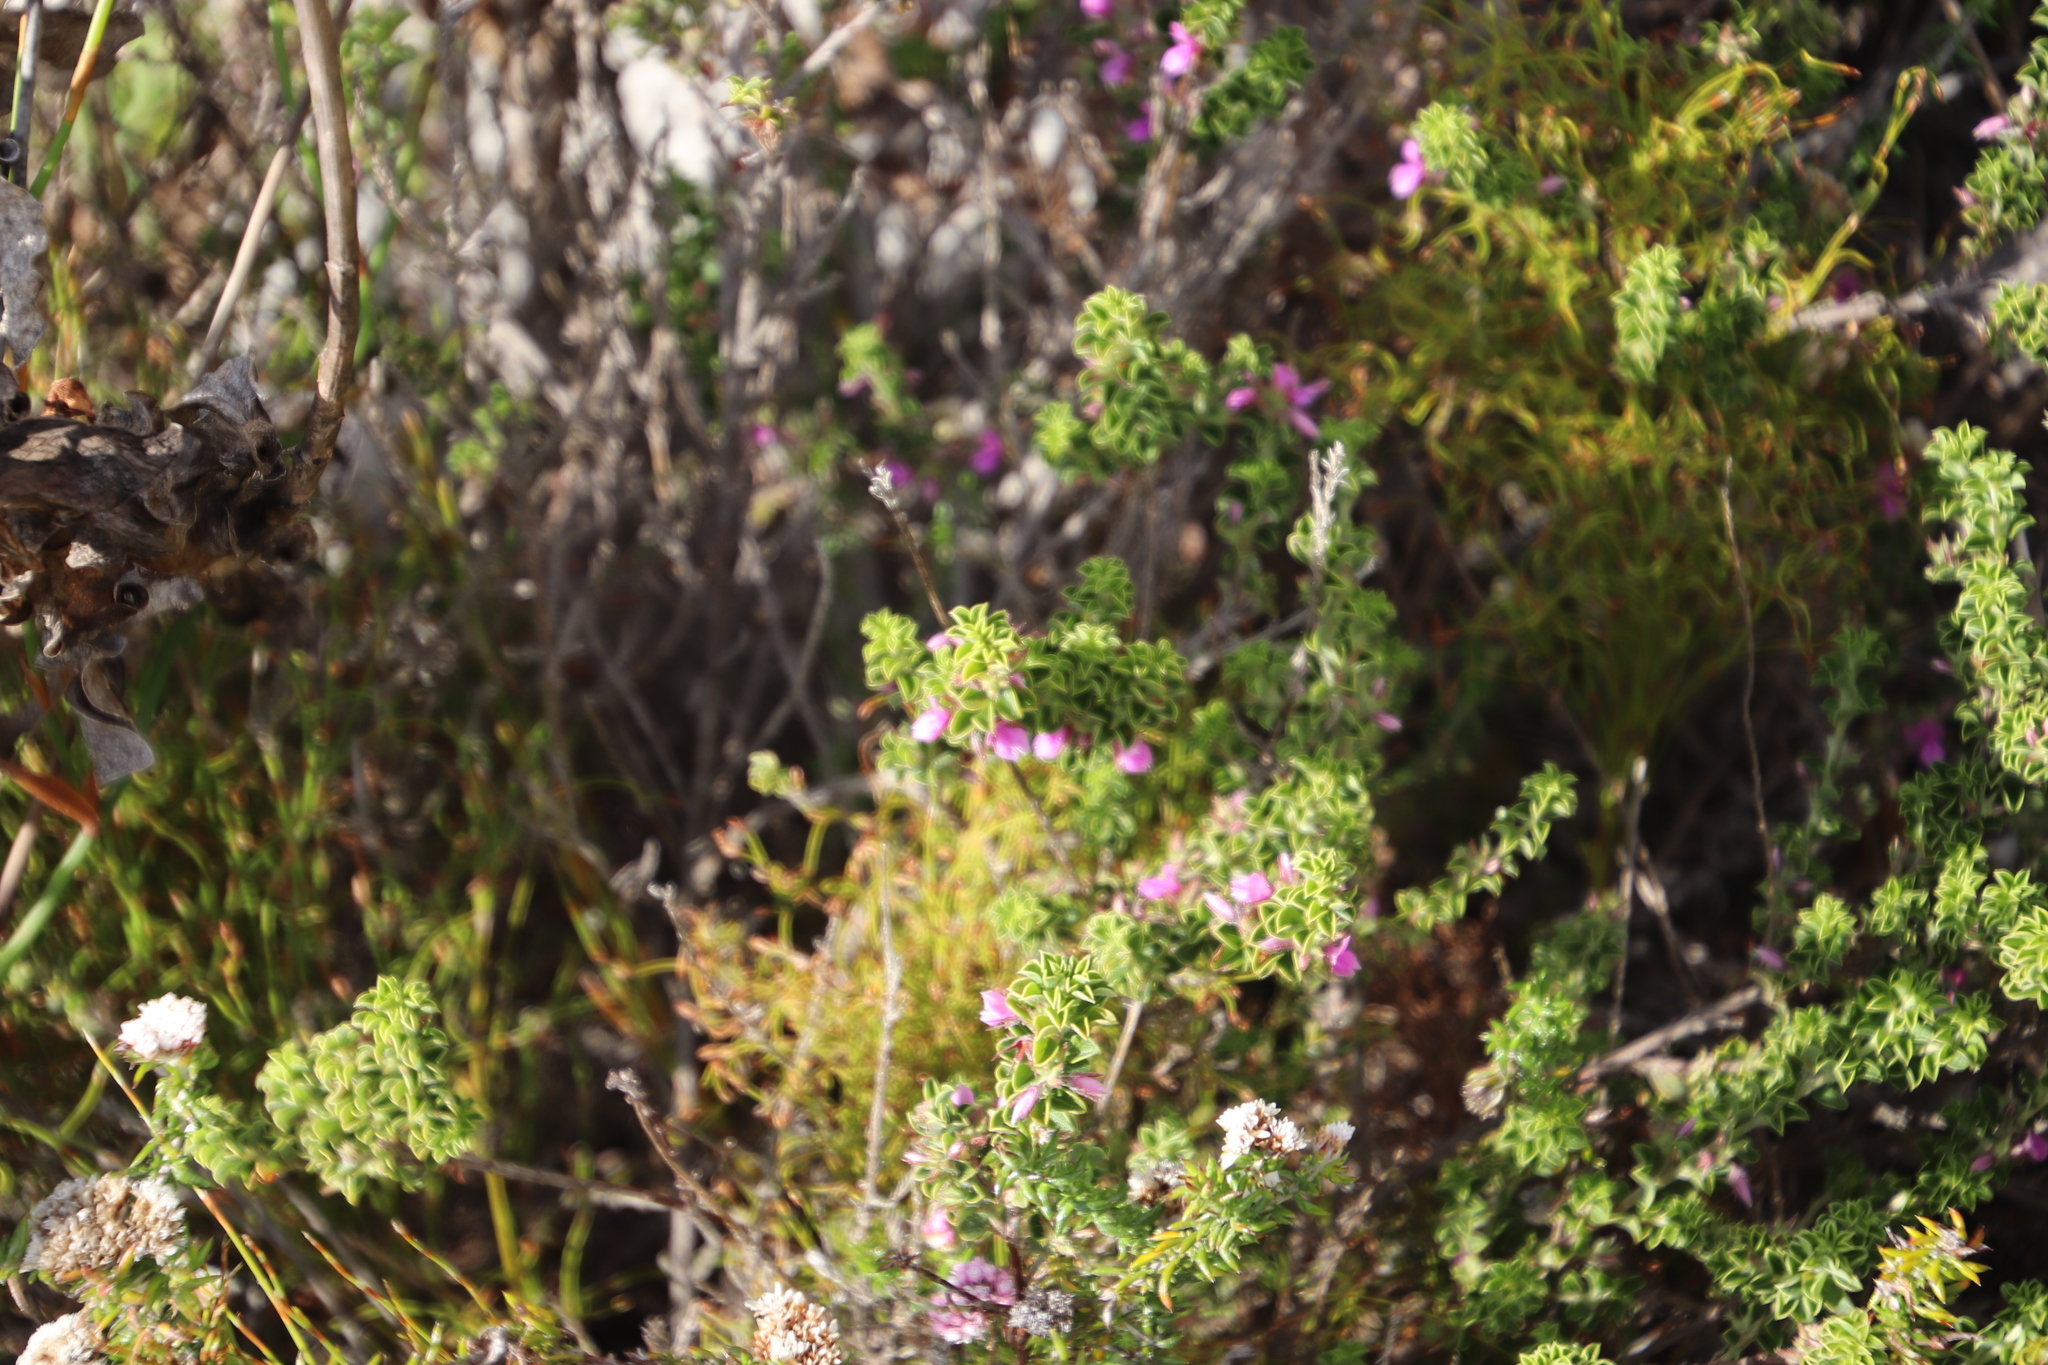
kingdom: Plantae
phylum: Tracheophyta
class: Magnoliopsida
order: Fabales
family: Fabaceae
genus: Indigofera
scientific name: Indigofera candolleana
